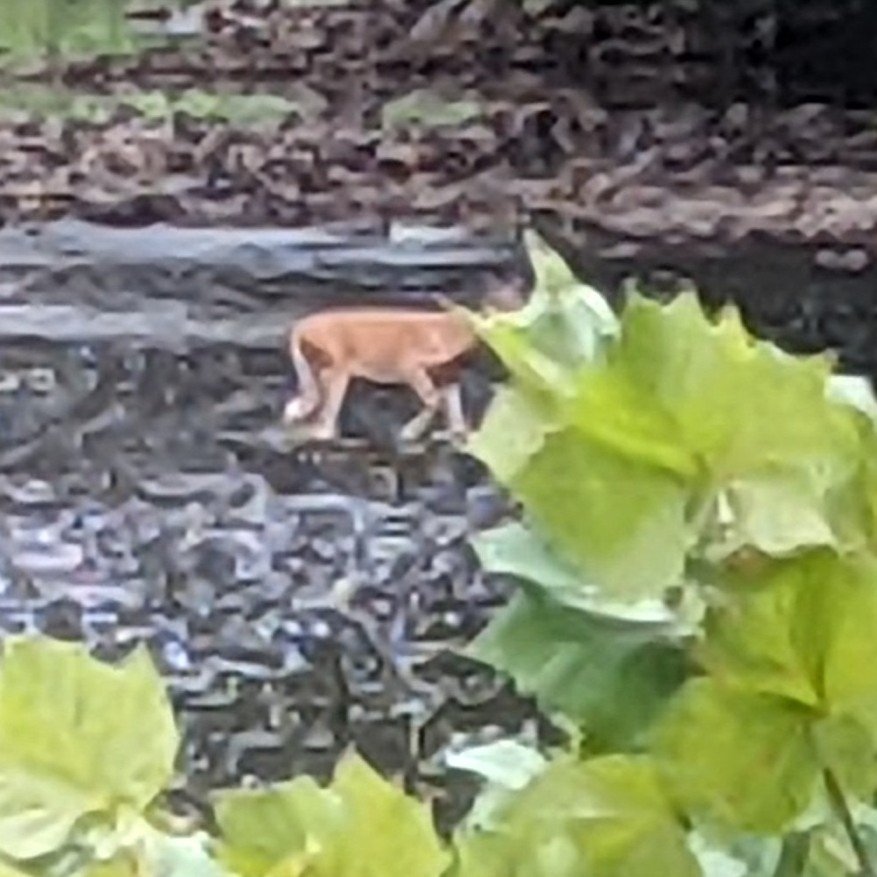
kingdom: Animalia
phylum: Chordata
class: Mammalia
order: Artiodactyla
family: Cervidae
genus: Odocoileus
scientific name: Odocoileus virginianus
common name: White-tailed deer
